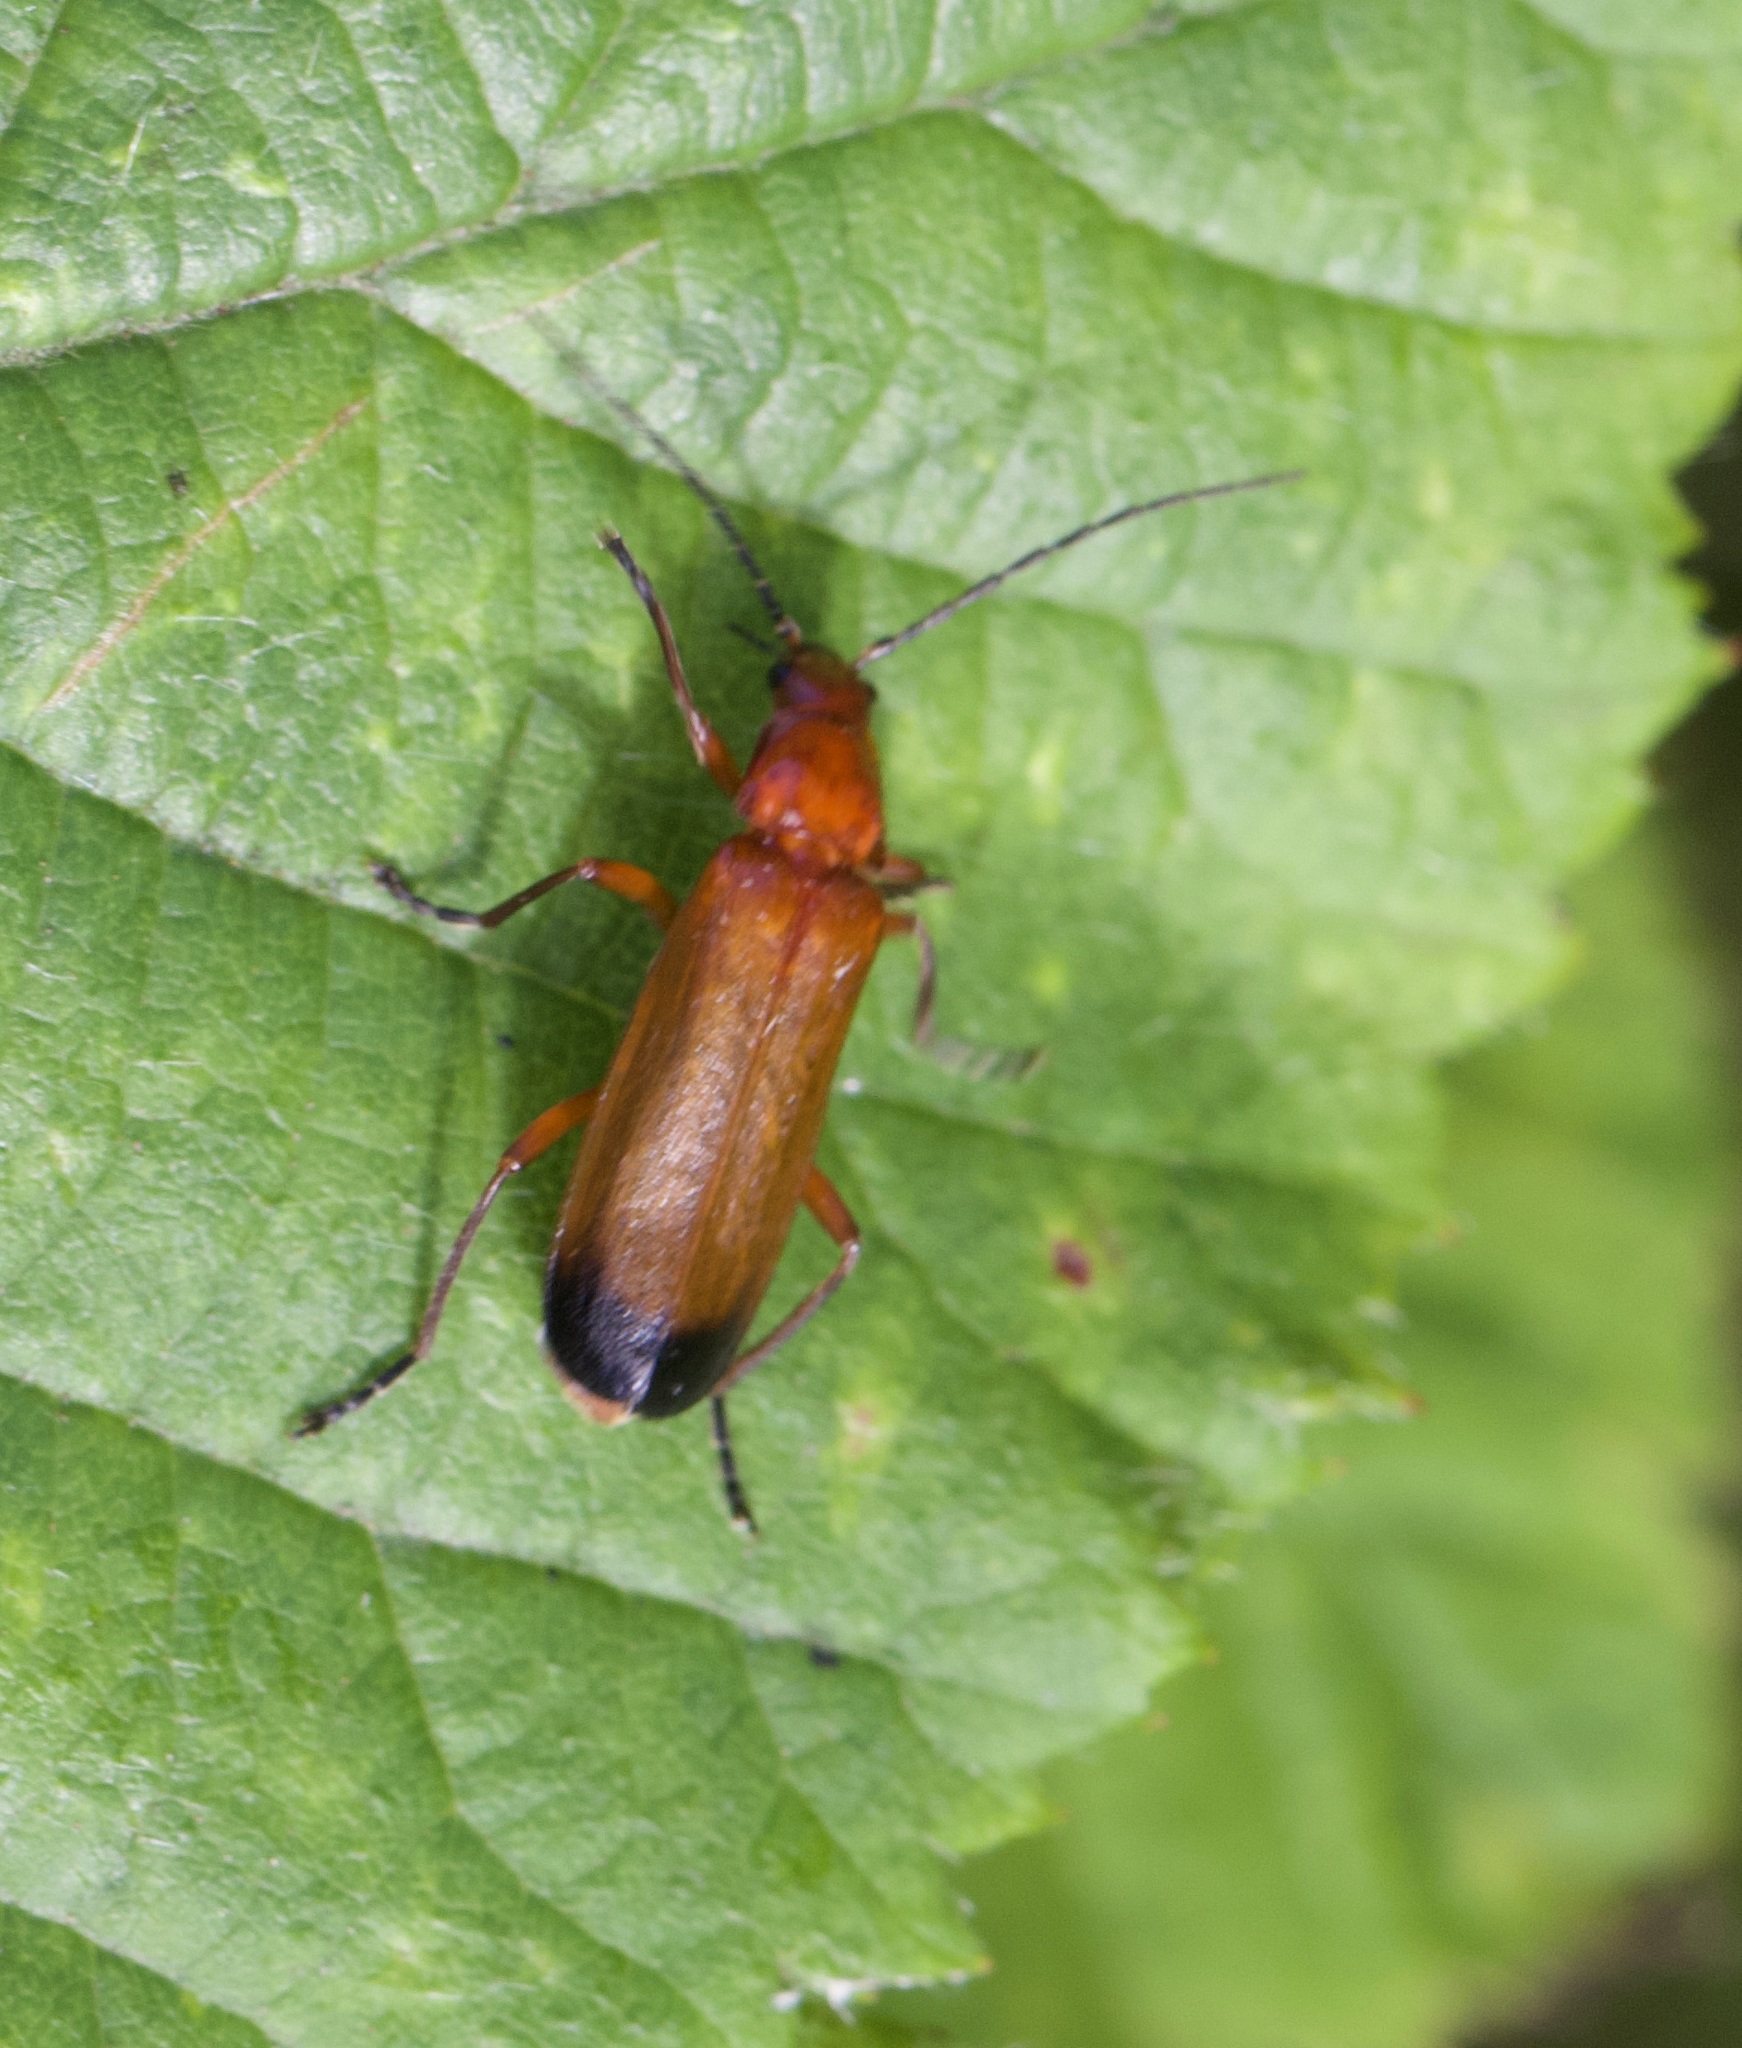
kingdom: Animalia
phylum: Arthropoda
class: Insecta
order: Coleoptera
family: Cantharidae
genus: Rhagonycha
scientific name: Rhagonycha fulva
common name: Common red soldier beetle
